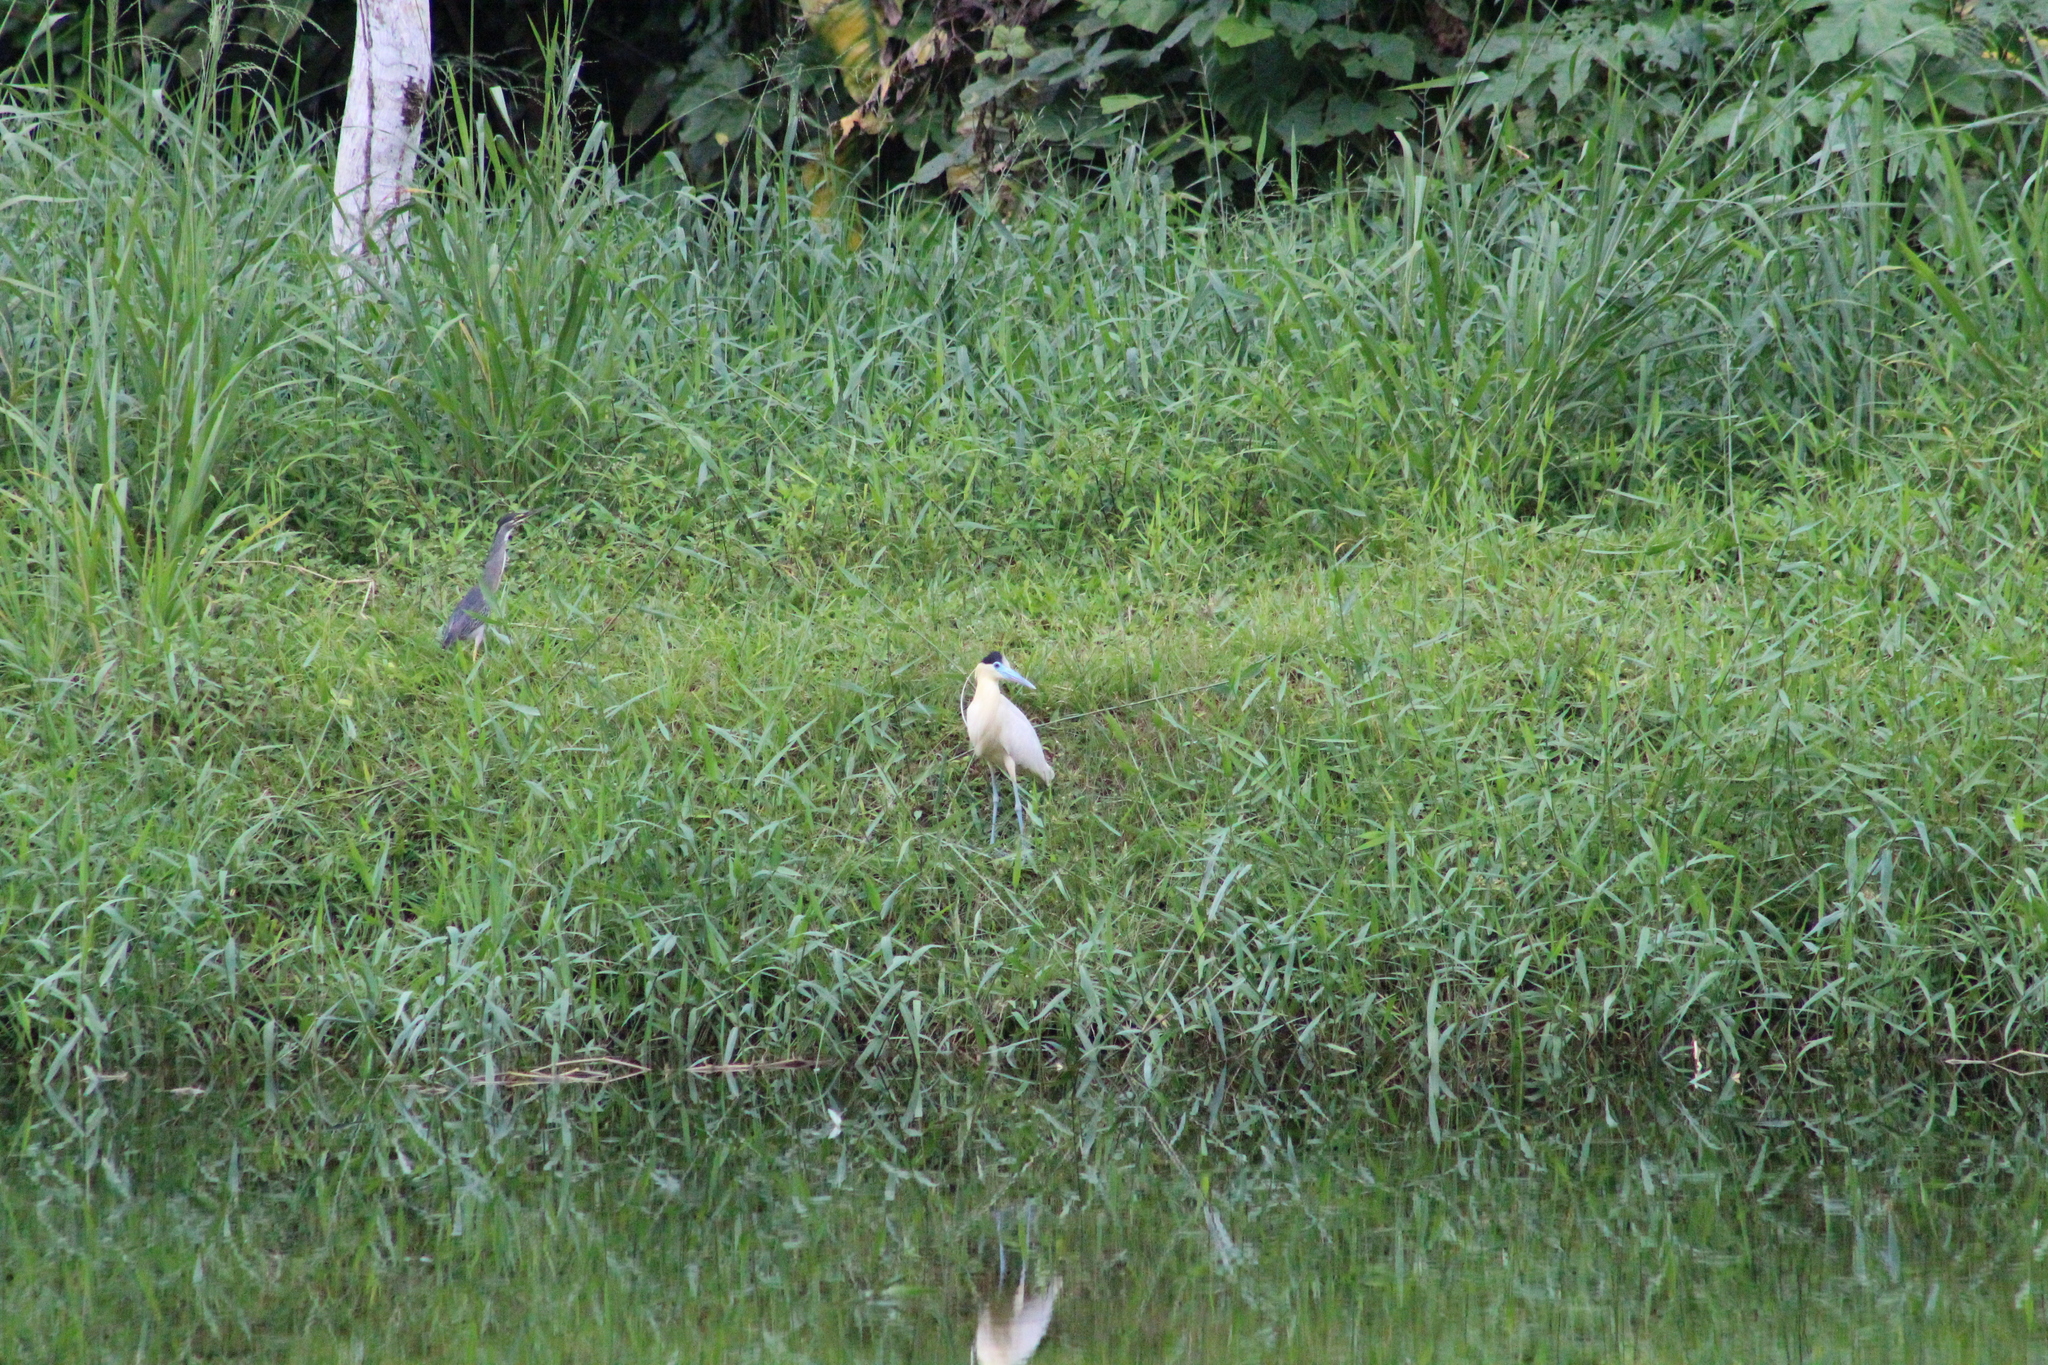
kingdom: Animalia
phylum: Chordata
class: Aves
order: Pelecaniformes
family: Ardeidae
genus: Pilherodius
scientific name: Pilherodius pileatus
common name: Capped heron
